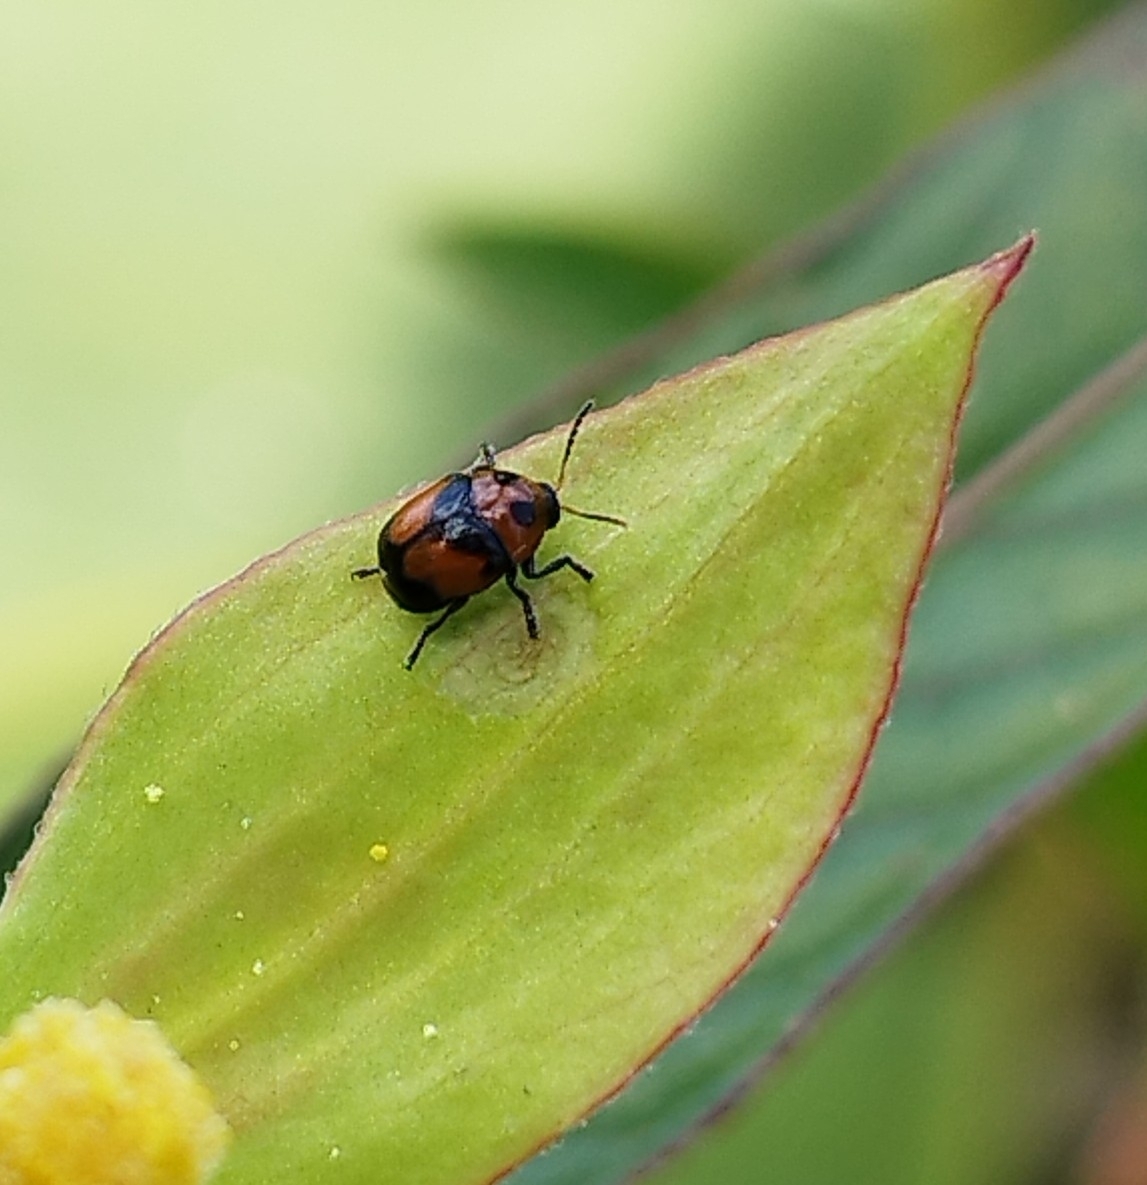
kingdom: Animalia
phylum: Arthropoda
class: Insecta
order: Coleoptera
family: Chrysomelidae
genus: Lexiphanes
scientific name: Lexiphanes
